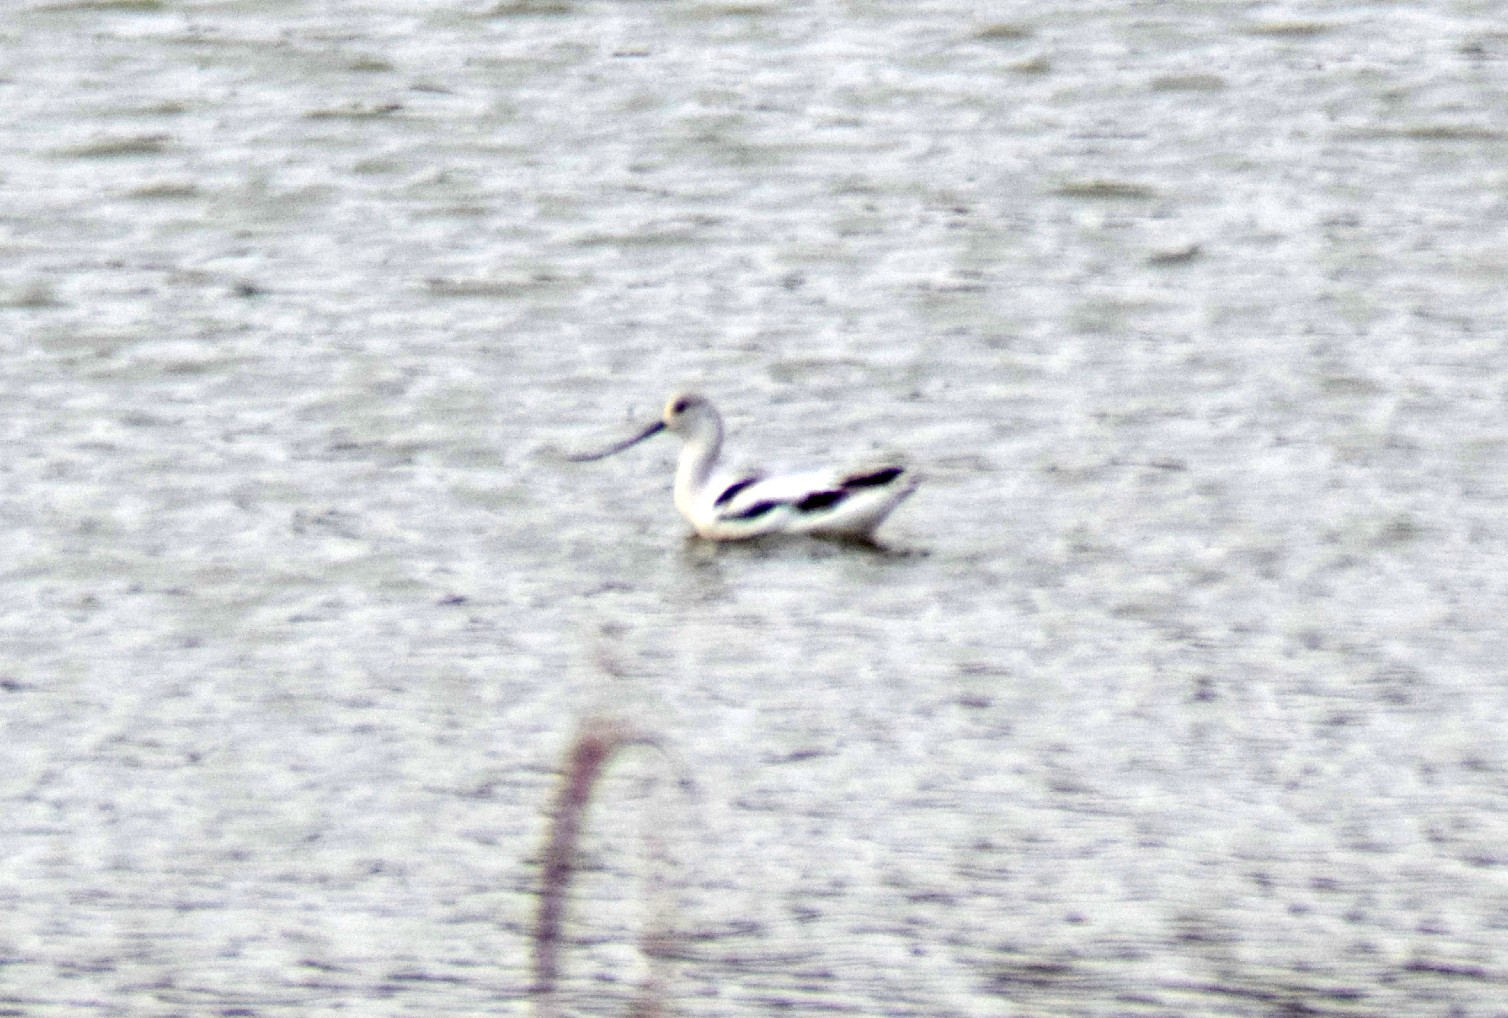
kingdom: Animalia
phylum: Chordata
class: Aves
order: Charadriiformes
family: Recurvirostridae
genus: Recurvirostra
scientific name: Recurvirostra americana
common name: American avocet
